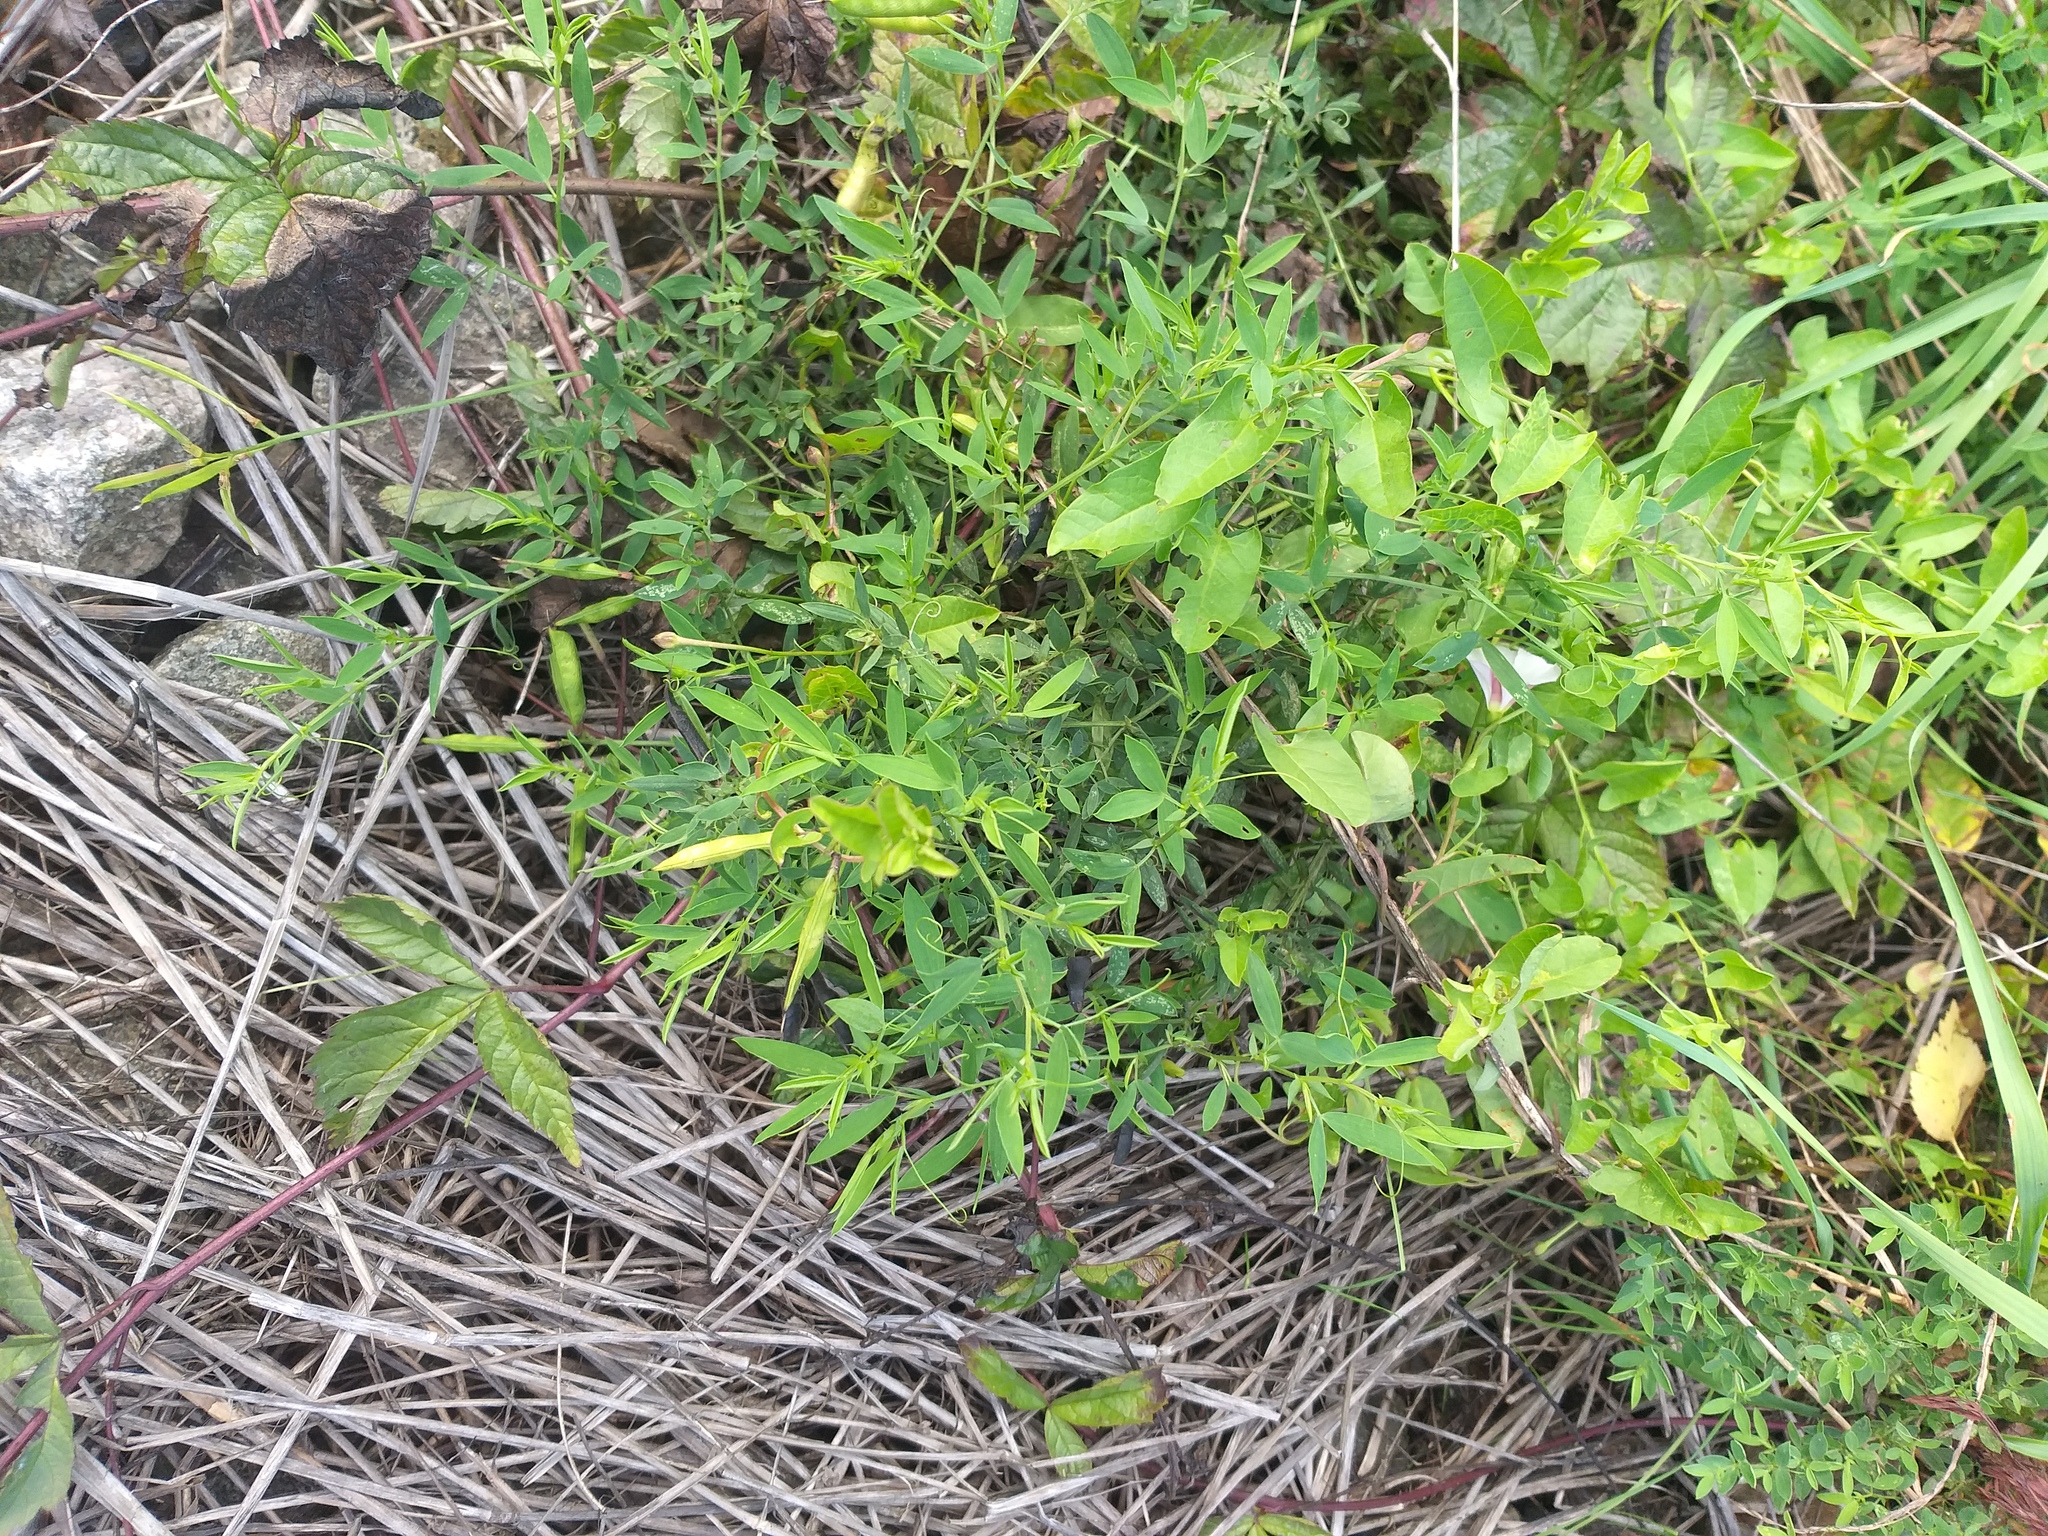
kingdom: Plantae
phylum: Tracheophyta
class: Magnoliopsida
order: Fabales
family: Fabaceae
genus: Lathyrus
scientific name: Lathyrus pratensis
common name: Meadow vetchling
